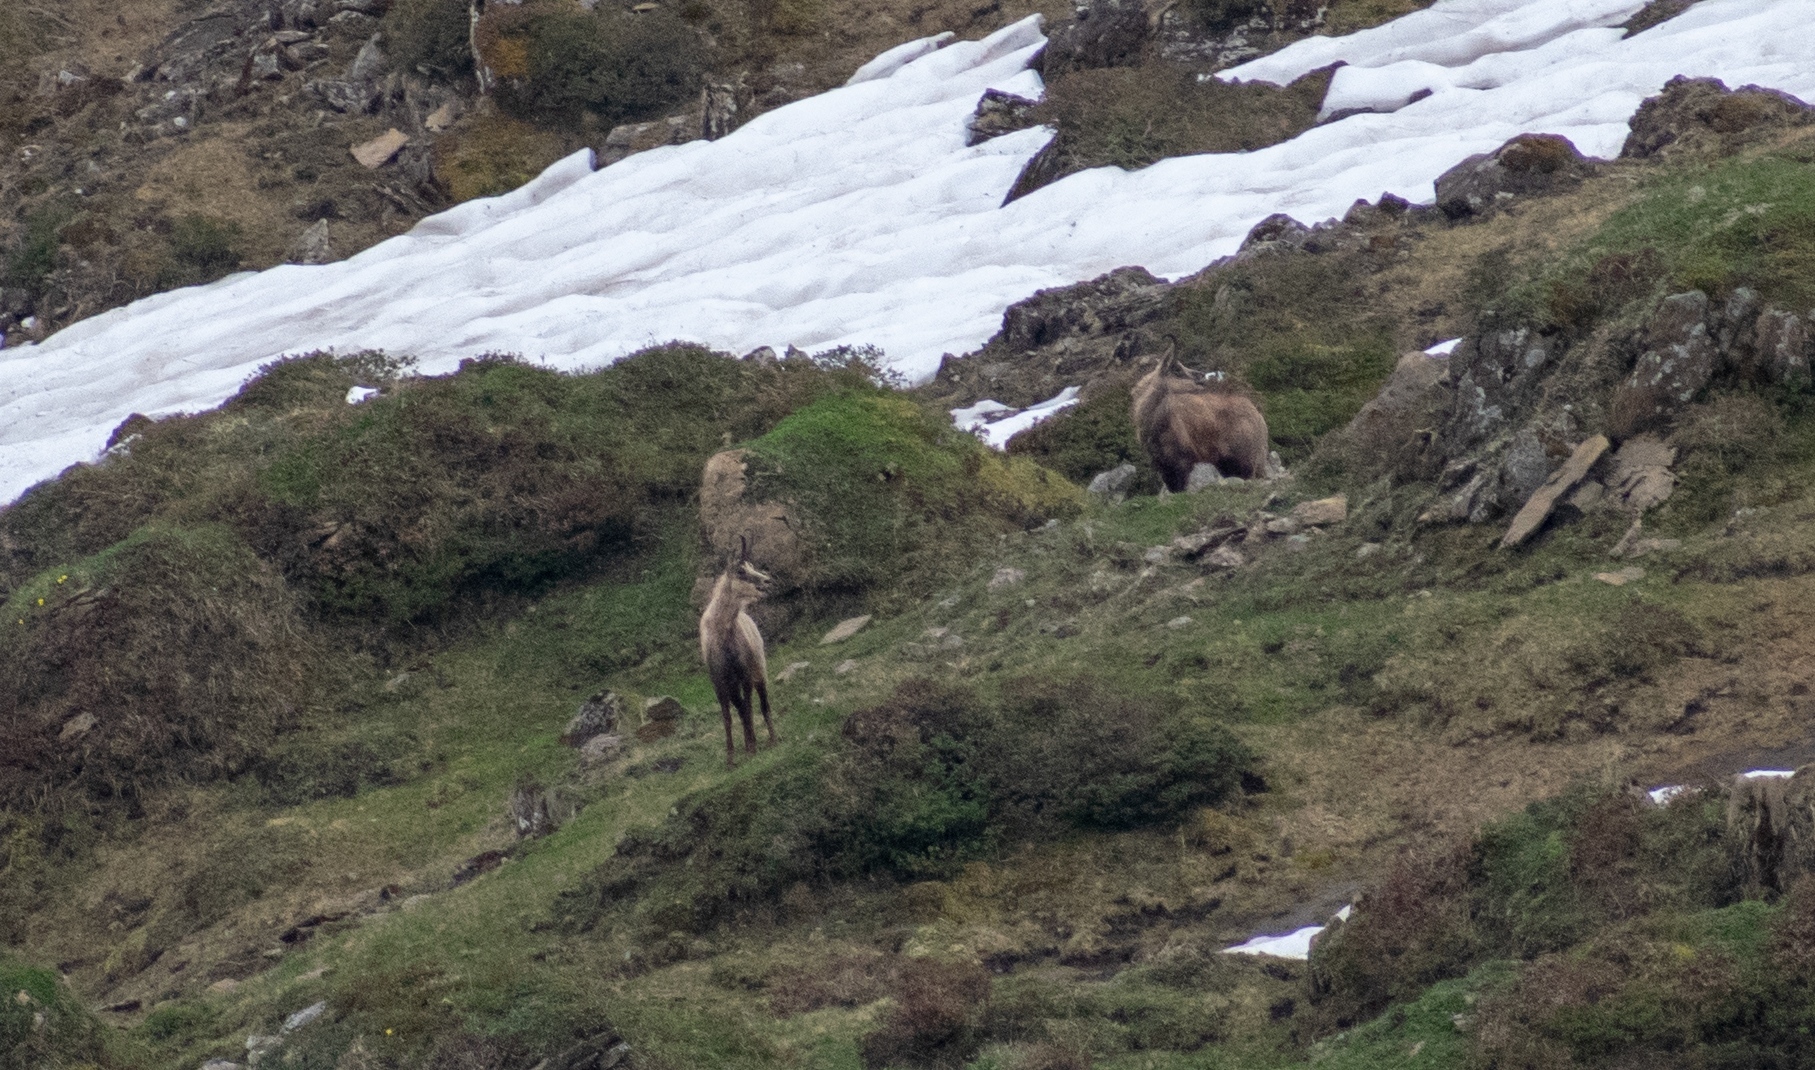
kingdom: Animalia
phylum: Chordata
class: Mammalia
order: Artiodactyla
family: Bovidae
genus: Rupicapra
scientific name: Rupicapra rupicapra
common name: Chamois
